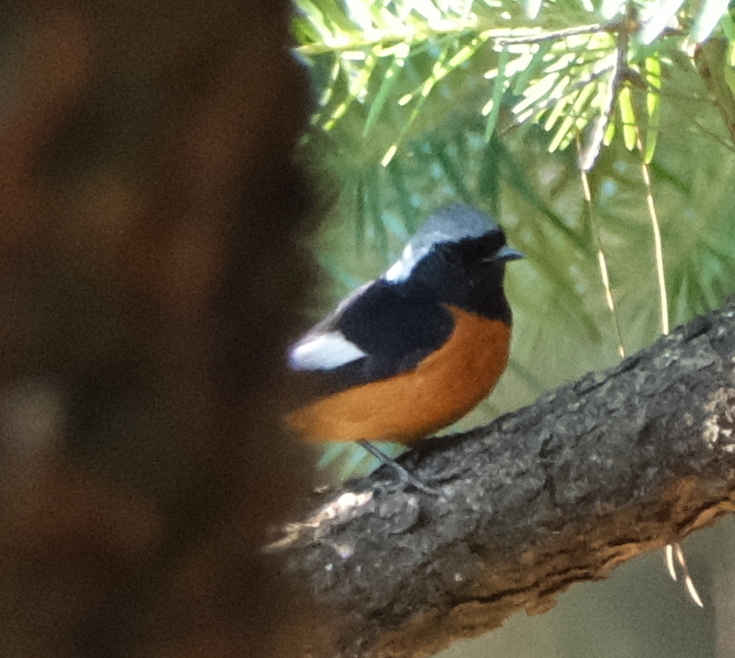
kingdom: Animalia
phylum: Chordata
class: Aves
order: Passeriformes
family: Muscicapidae
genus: Phoenicurus
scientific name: Phoenicurus auroreus
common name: Daurian redstart
